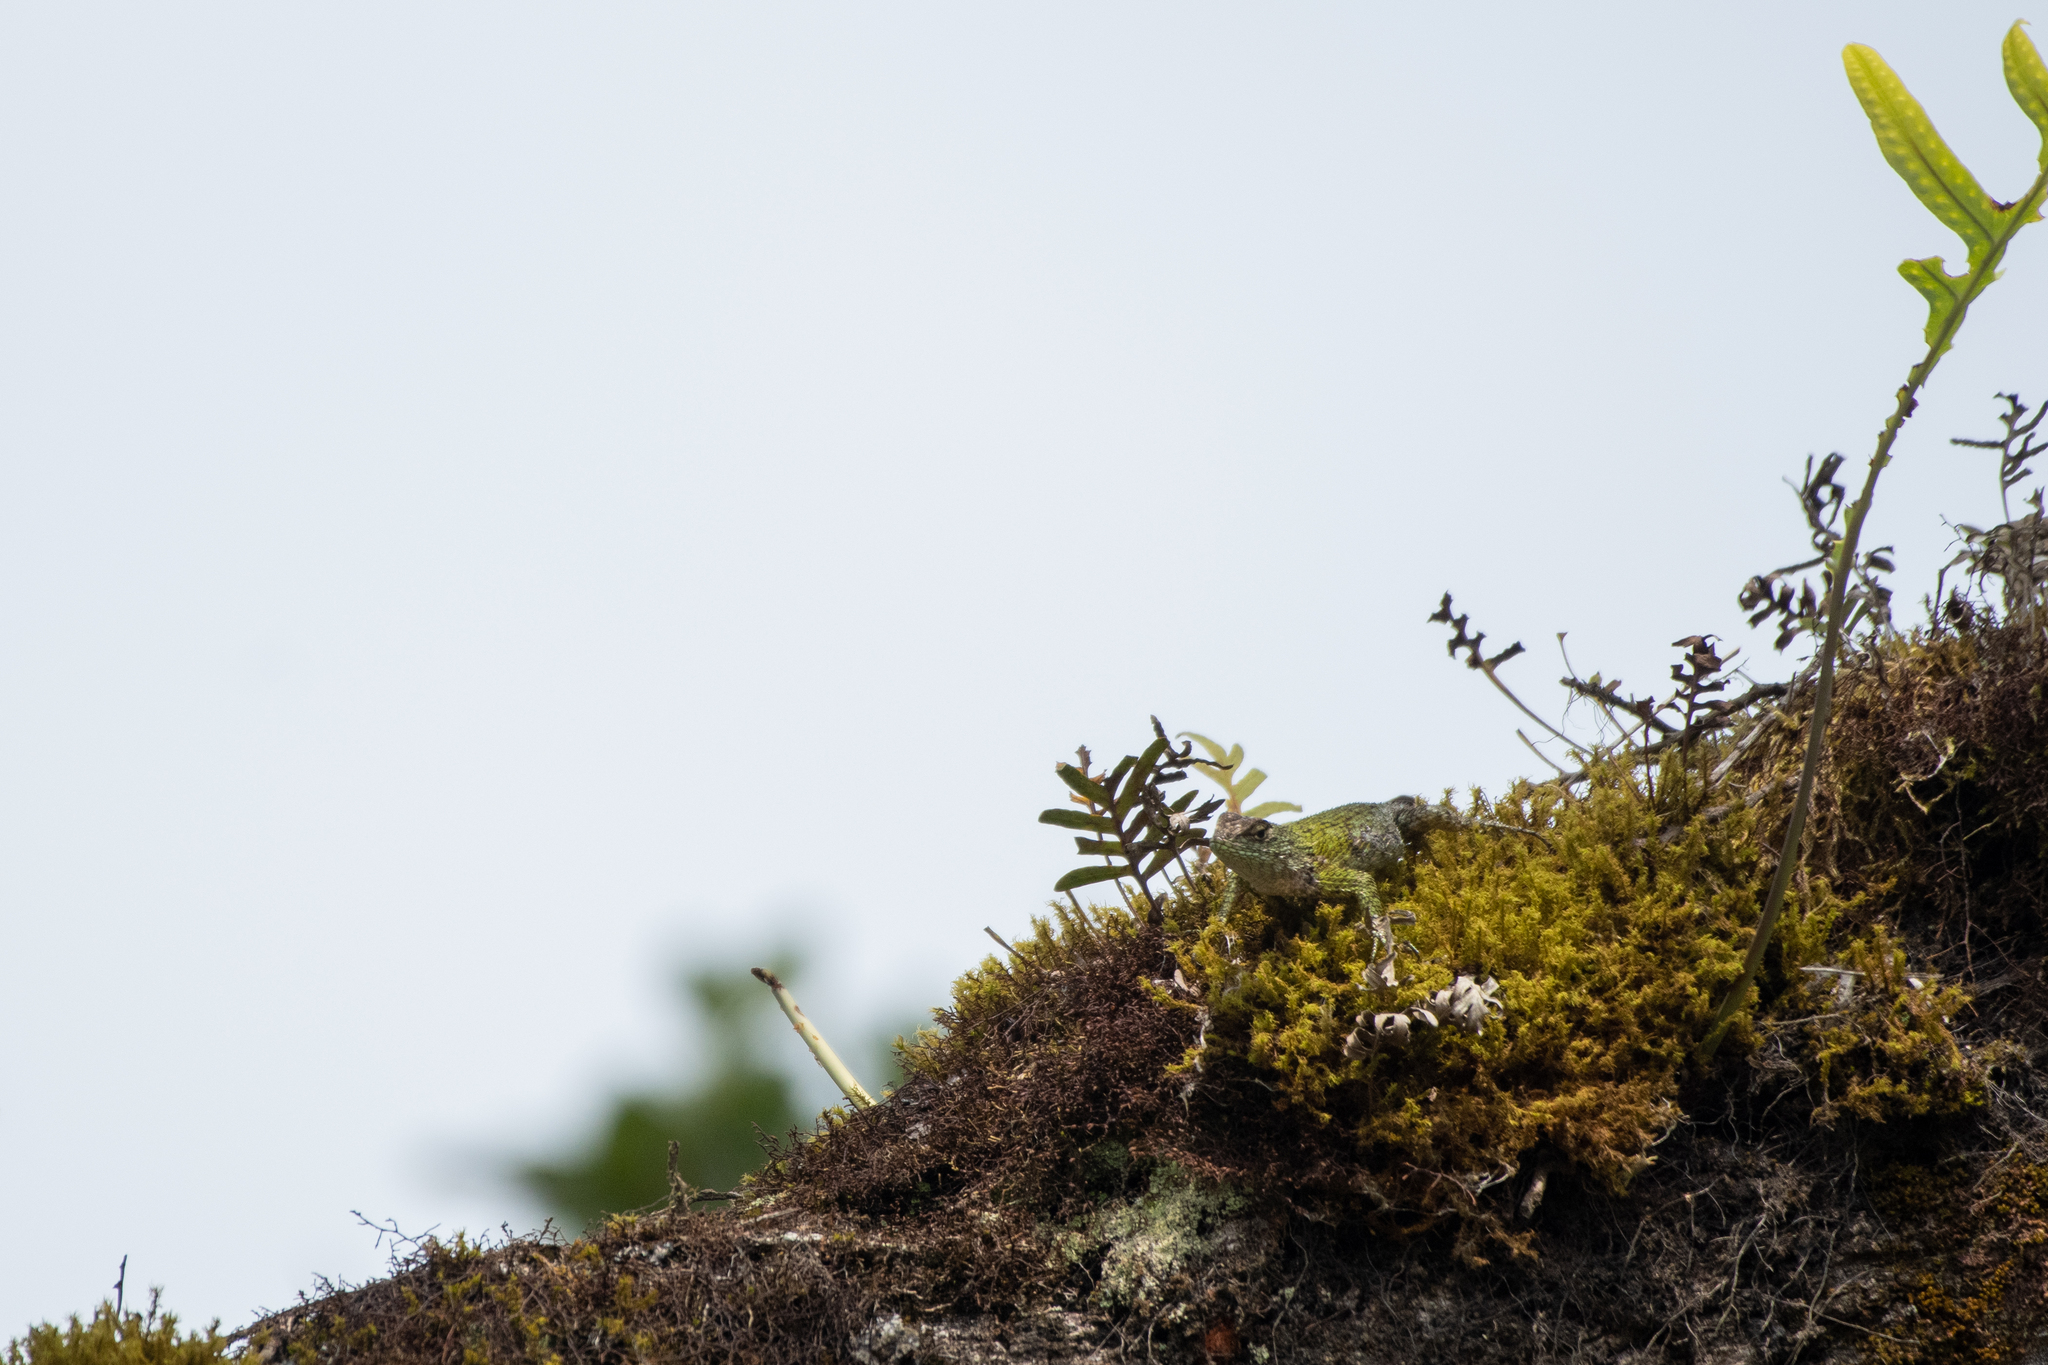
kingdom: Animalia
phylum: Chordata
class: Squamata
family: Phrynosomatidae
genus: Sceloporus
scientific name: Sceloporus esperanzae
